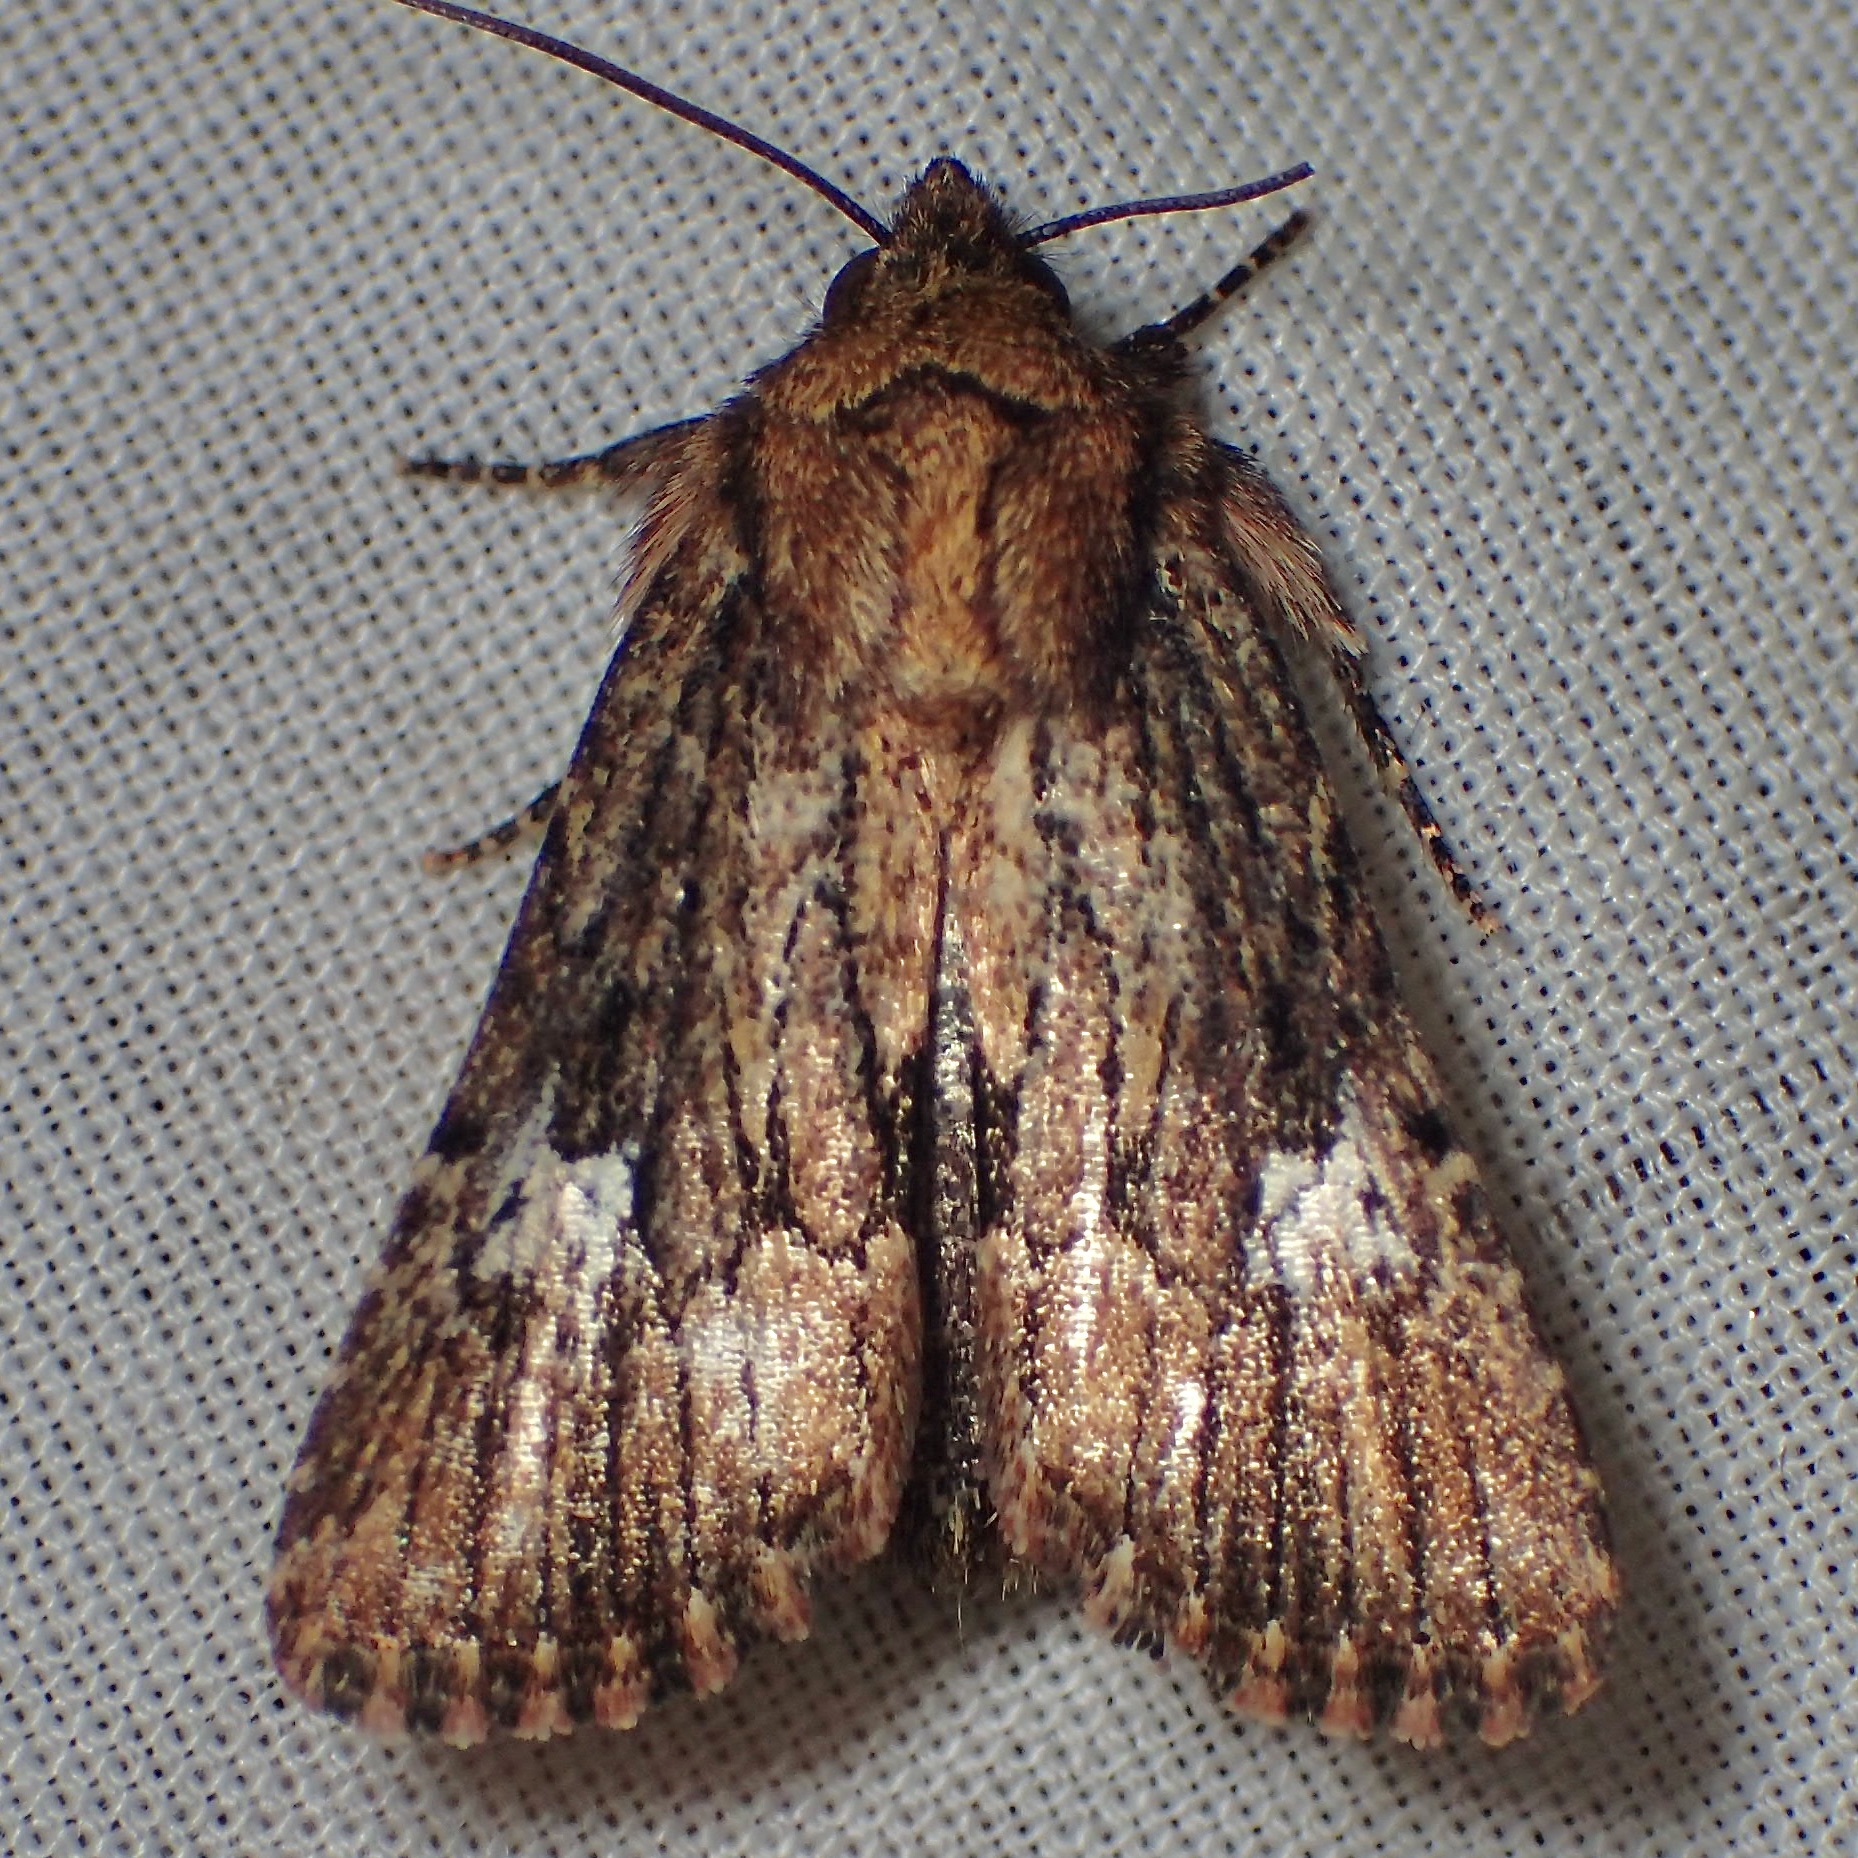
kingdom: Animalia
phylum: Arthropoda
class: Insecta
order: Lepidoptera
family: Noctuidae
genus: Properigea
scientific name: Properigea loculosa
